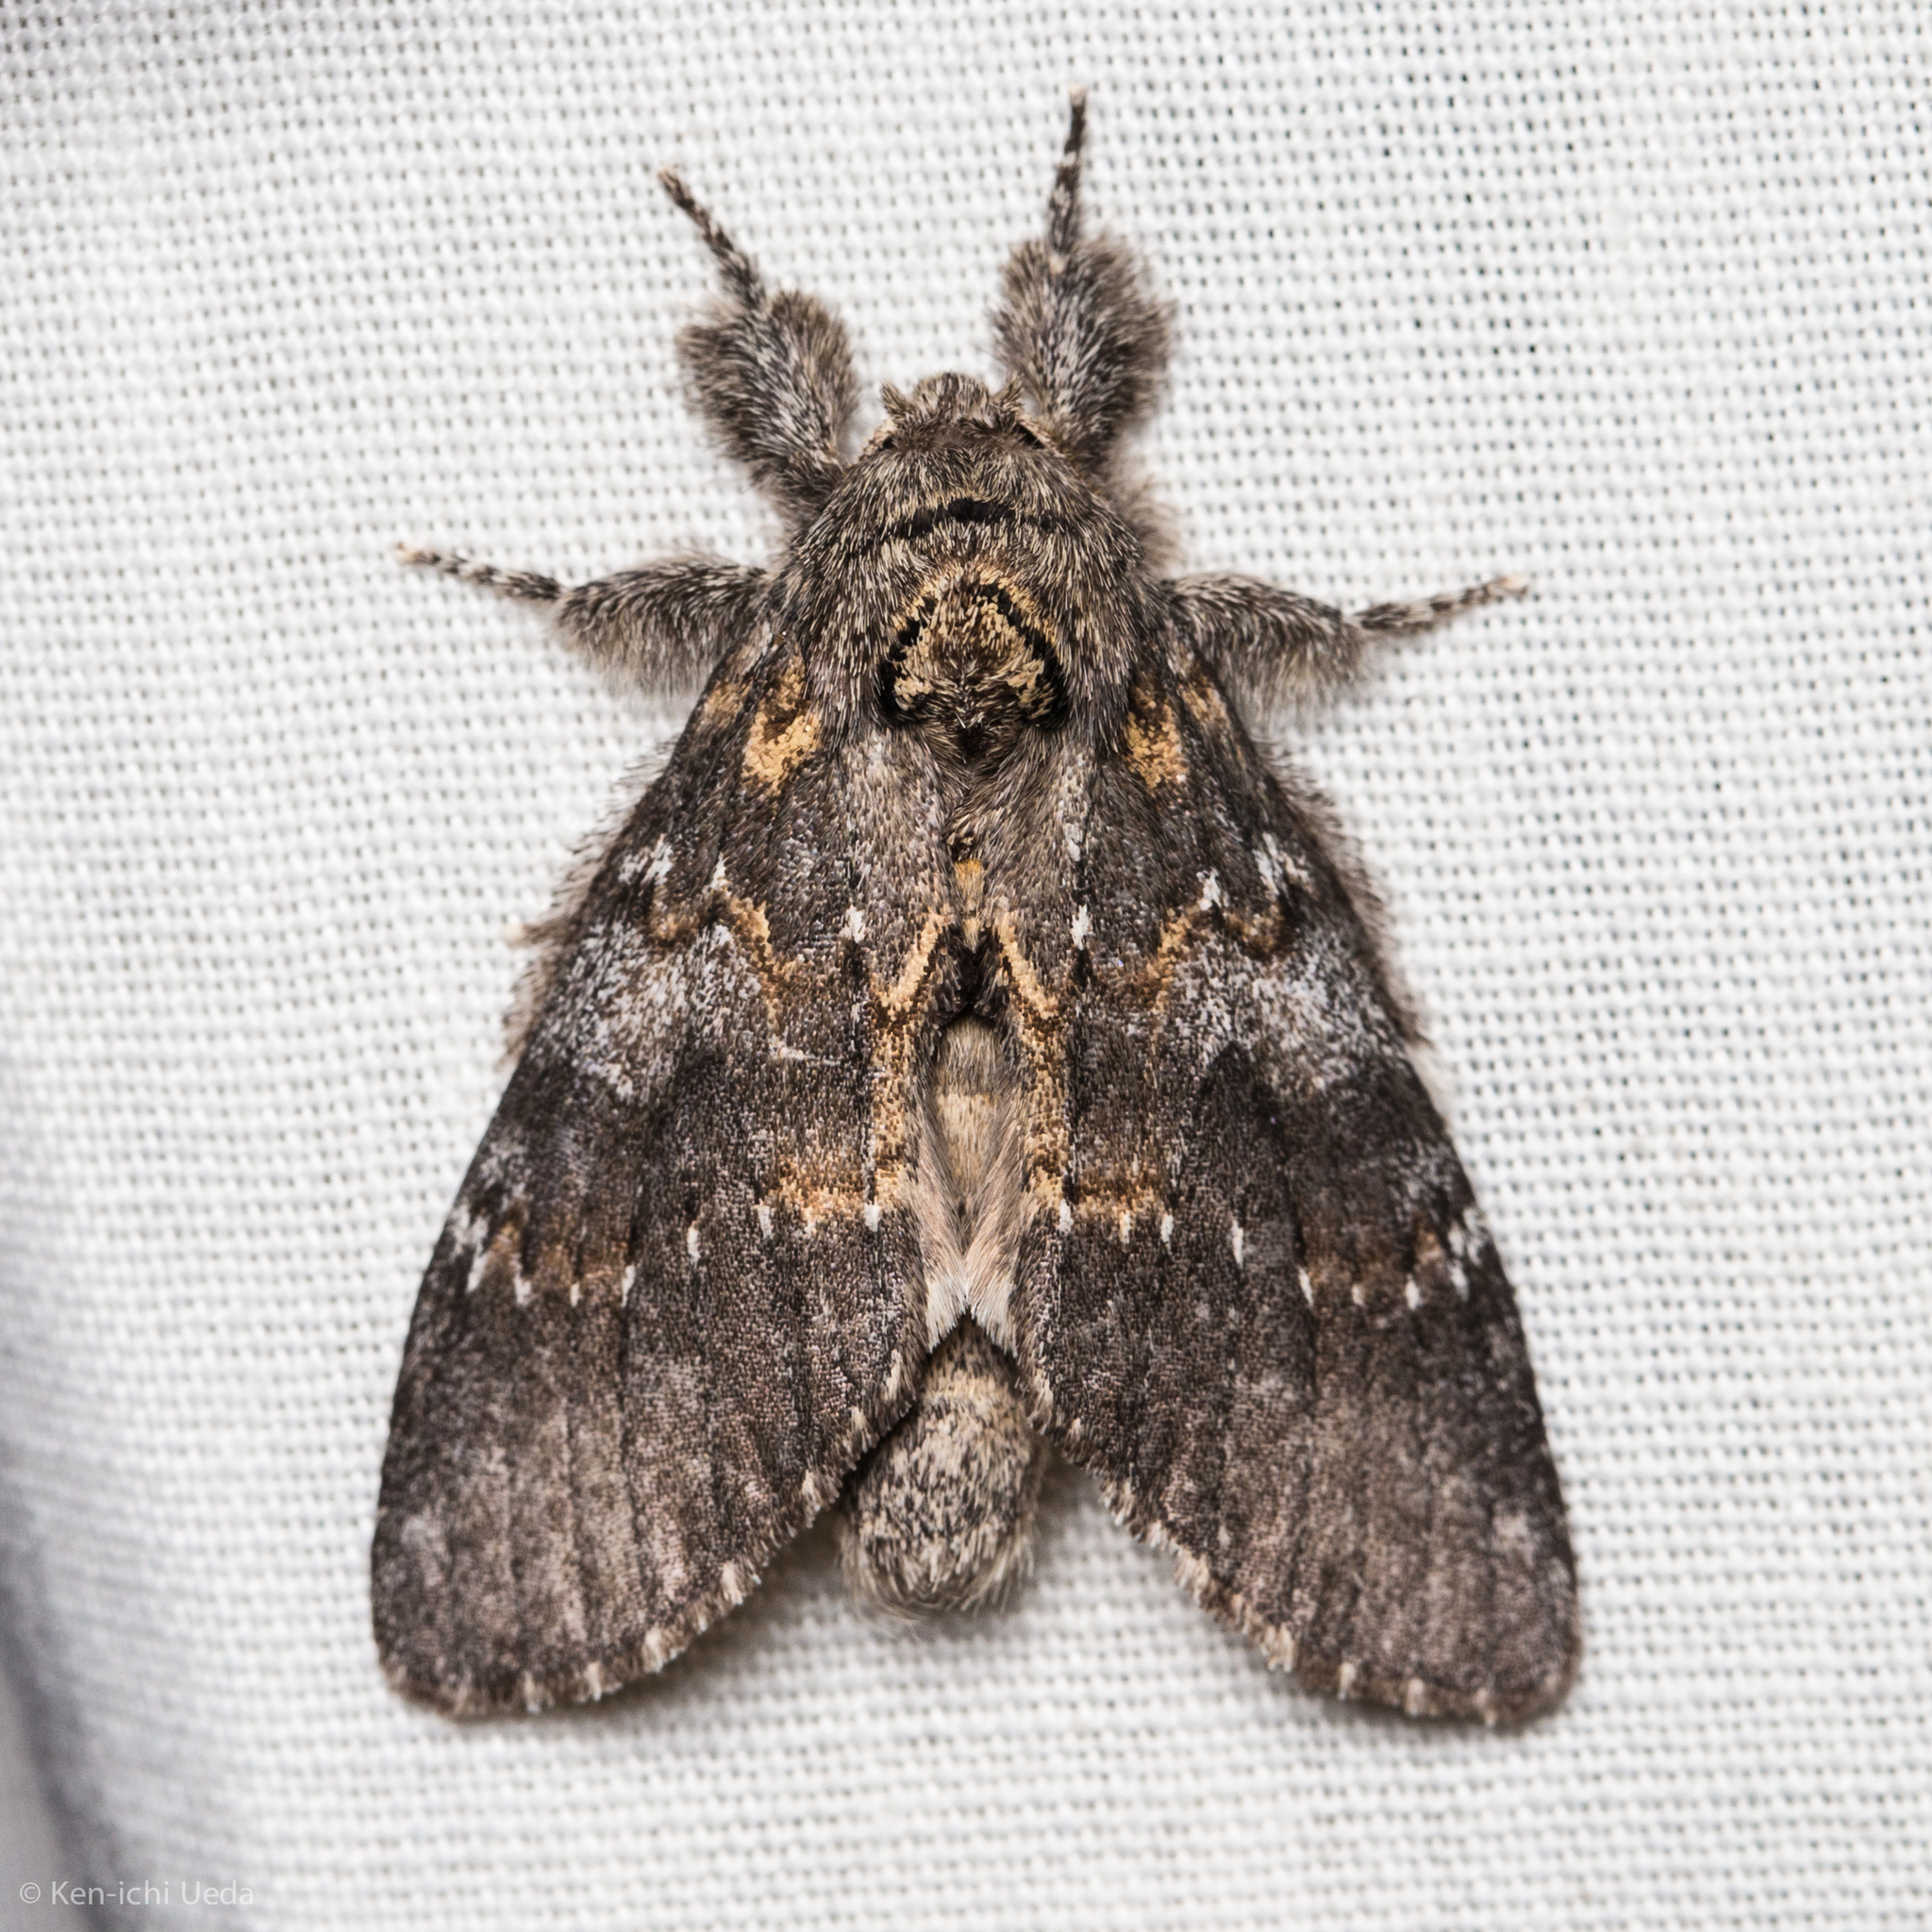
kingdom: Animalia
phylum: Arthropoda
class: Insecta
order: Lepidoptera
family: Notodontidae
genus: Peridea
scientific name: Peridea angulosa
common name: Angulose prominent
